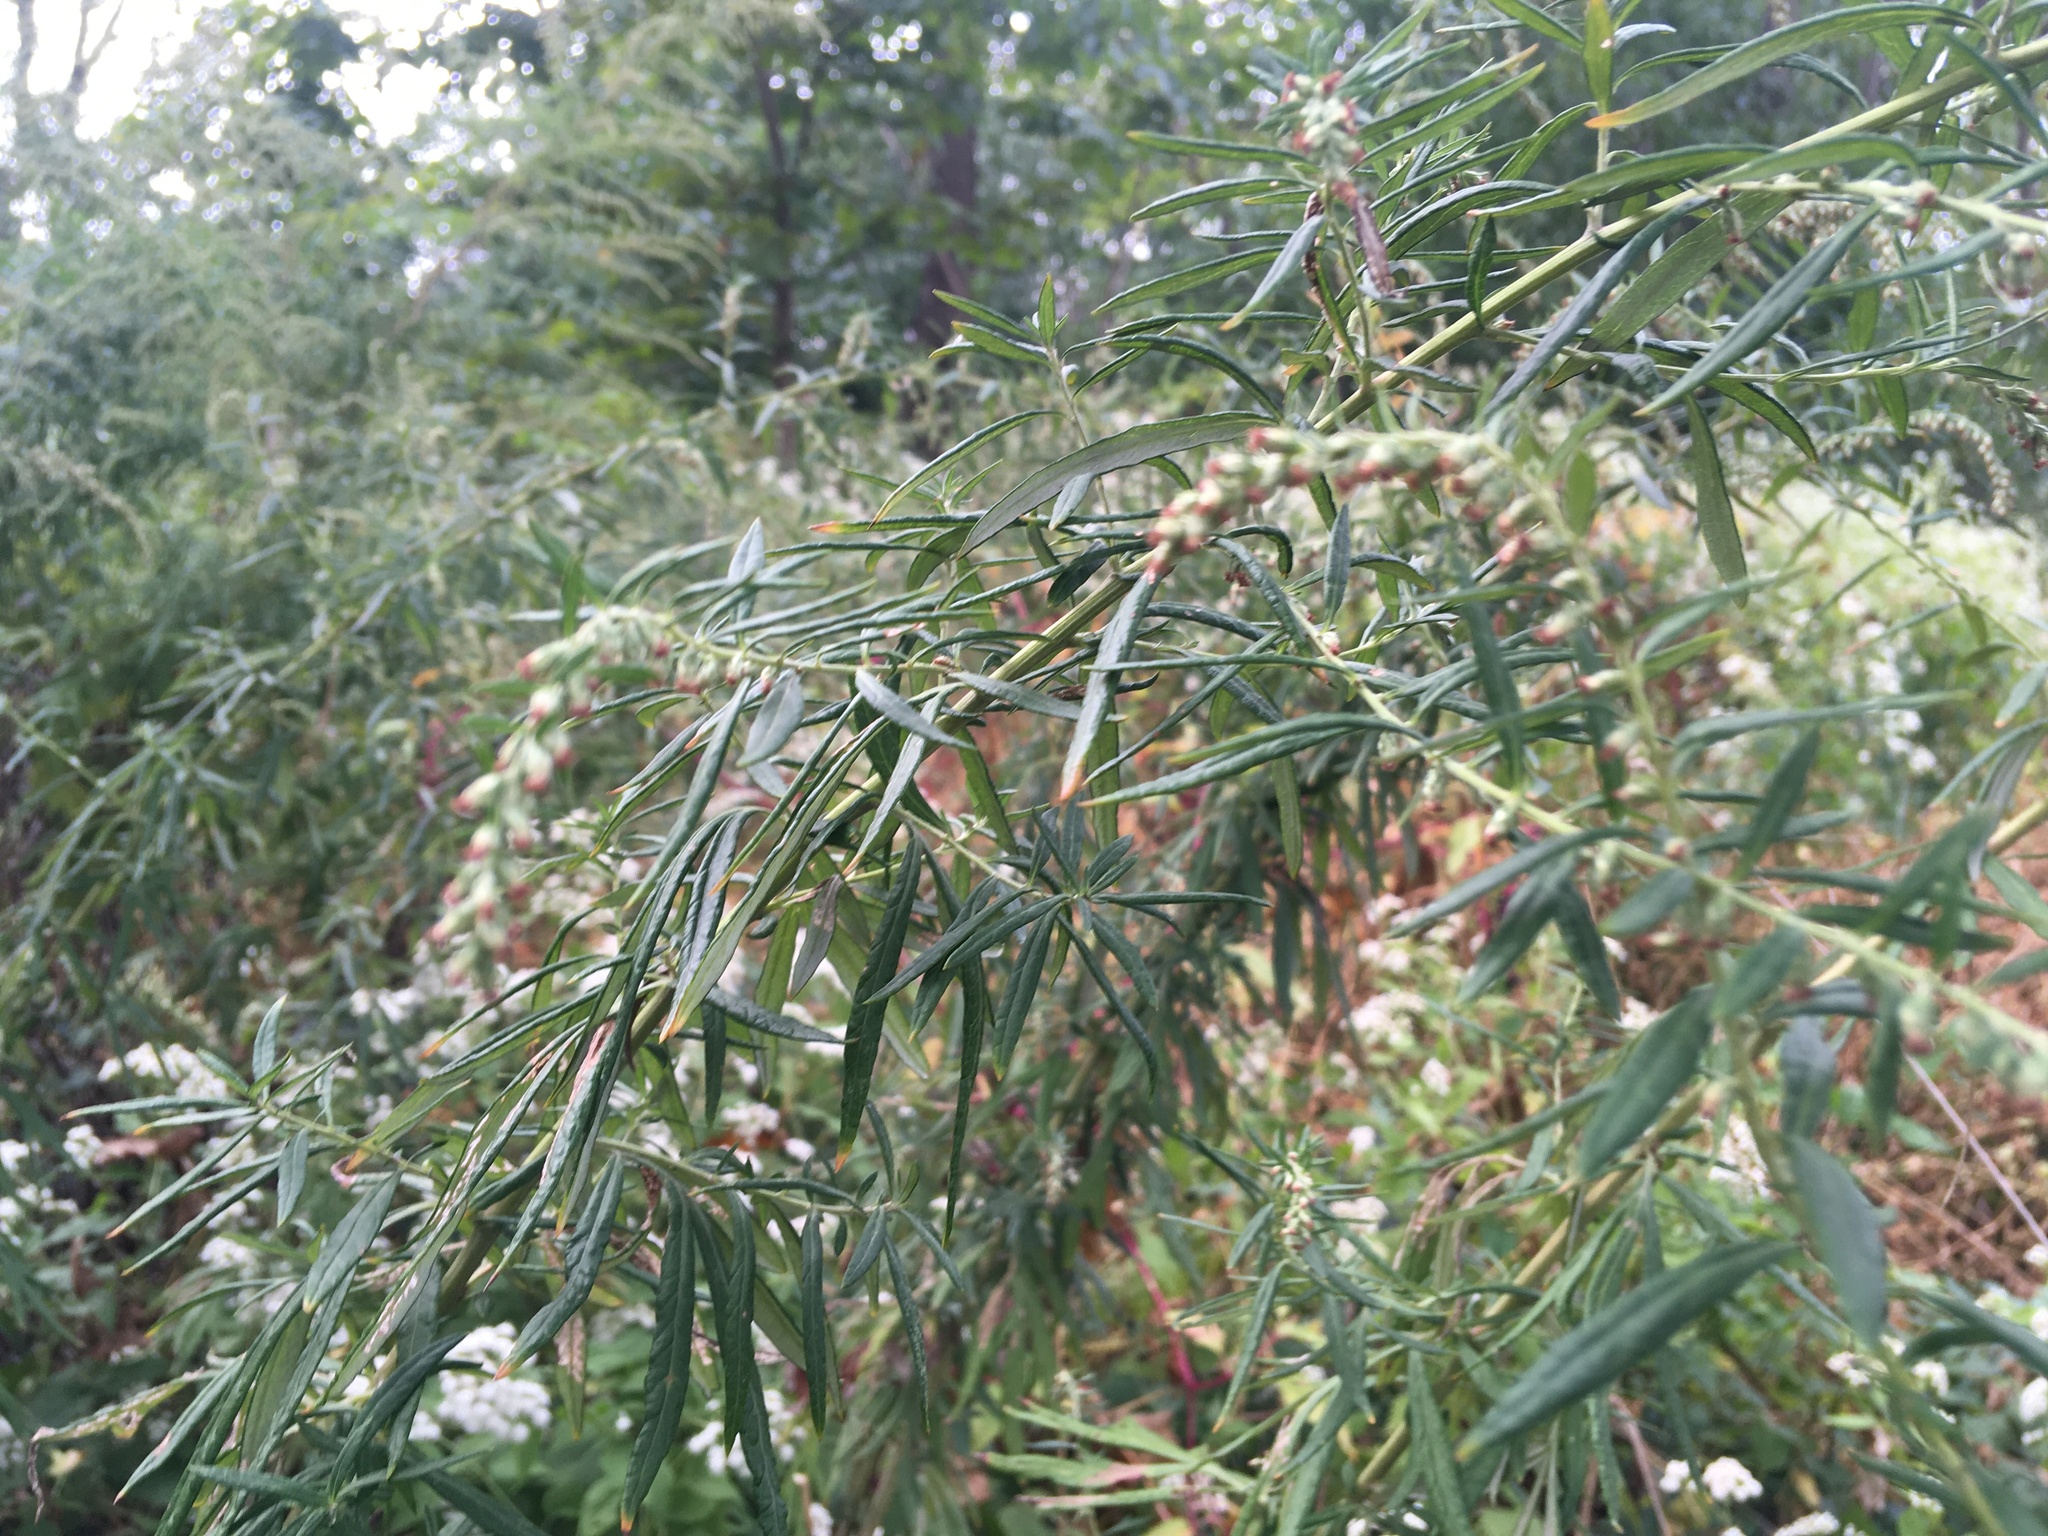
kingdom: Plantae
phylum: Tracheophyta
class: Magnoliopsida
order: Asterales
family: Asteraceae
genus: Artemisia
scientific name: Artemisia vulgaris
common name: Mugwort
